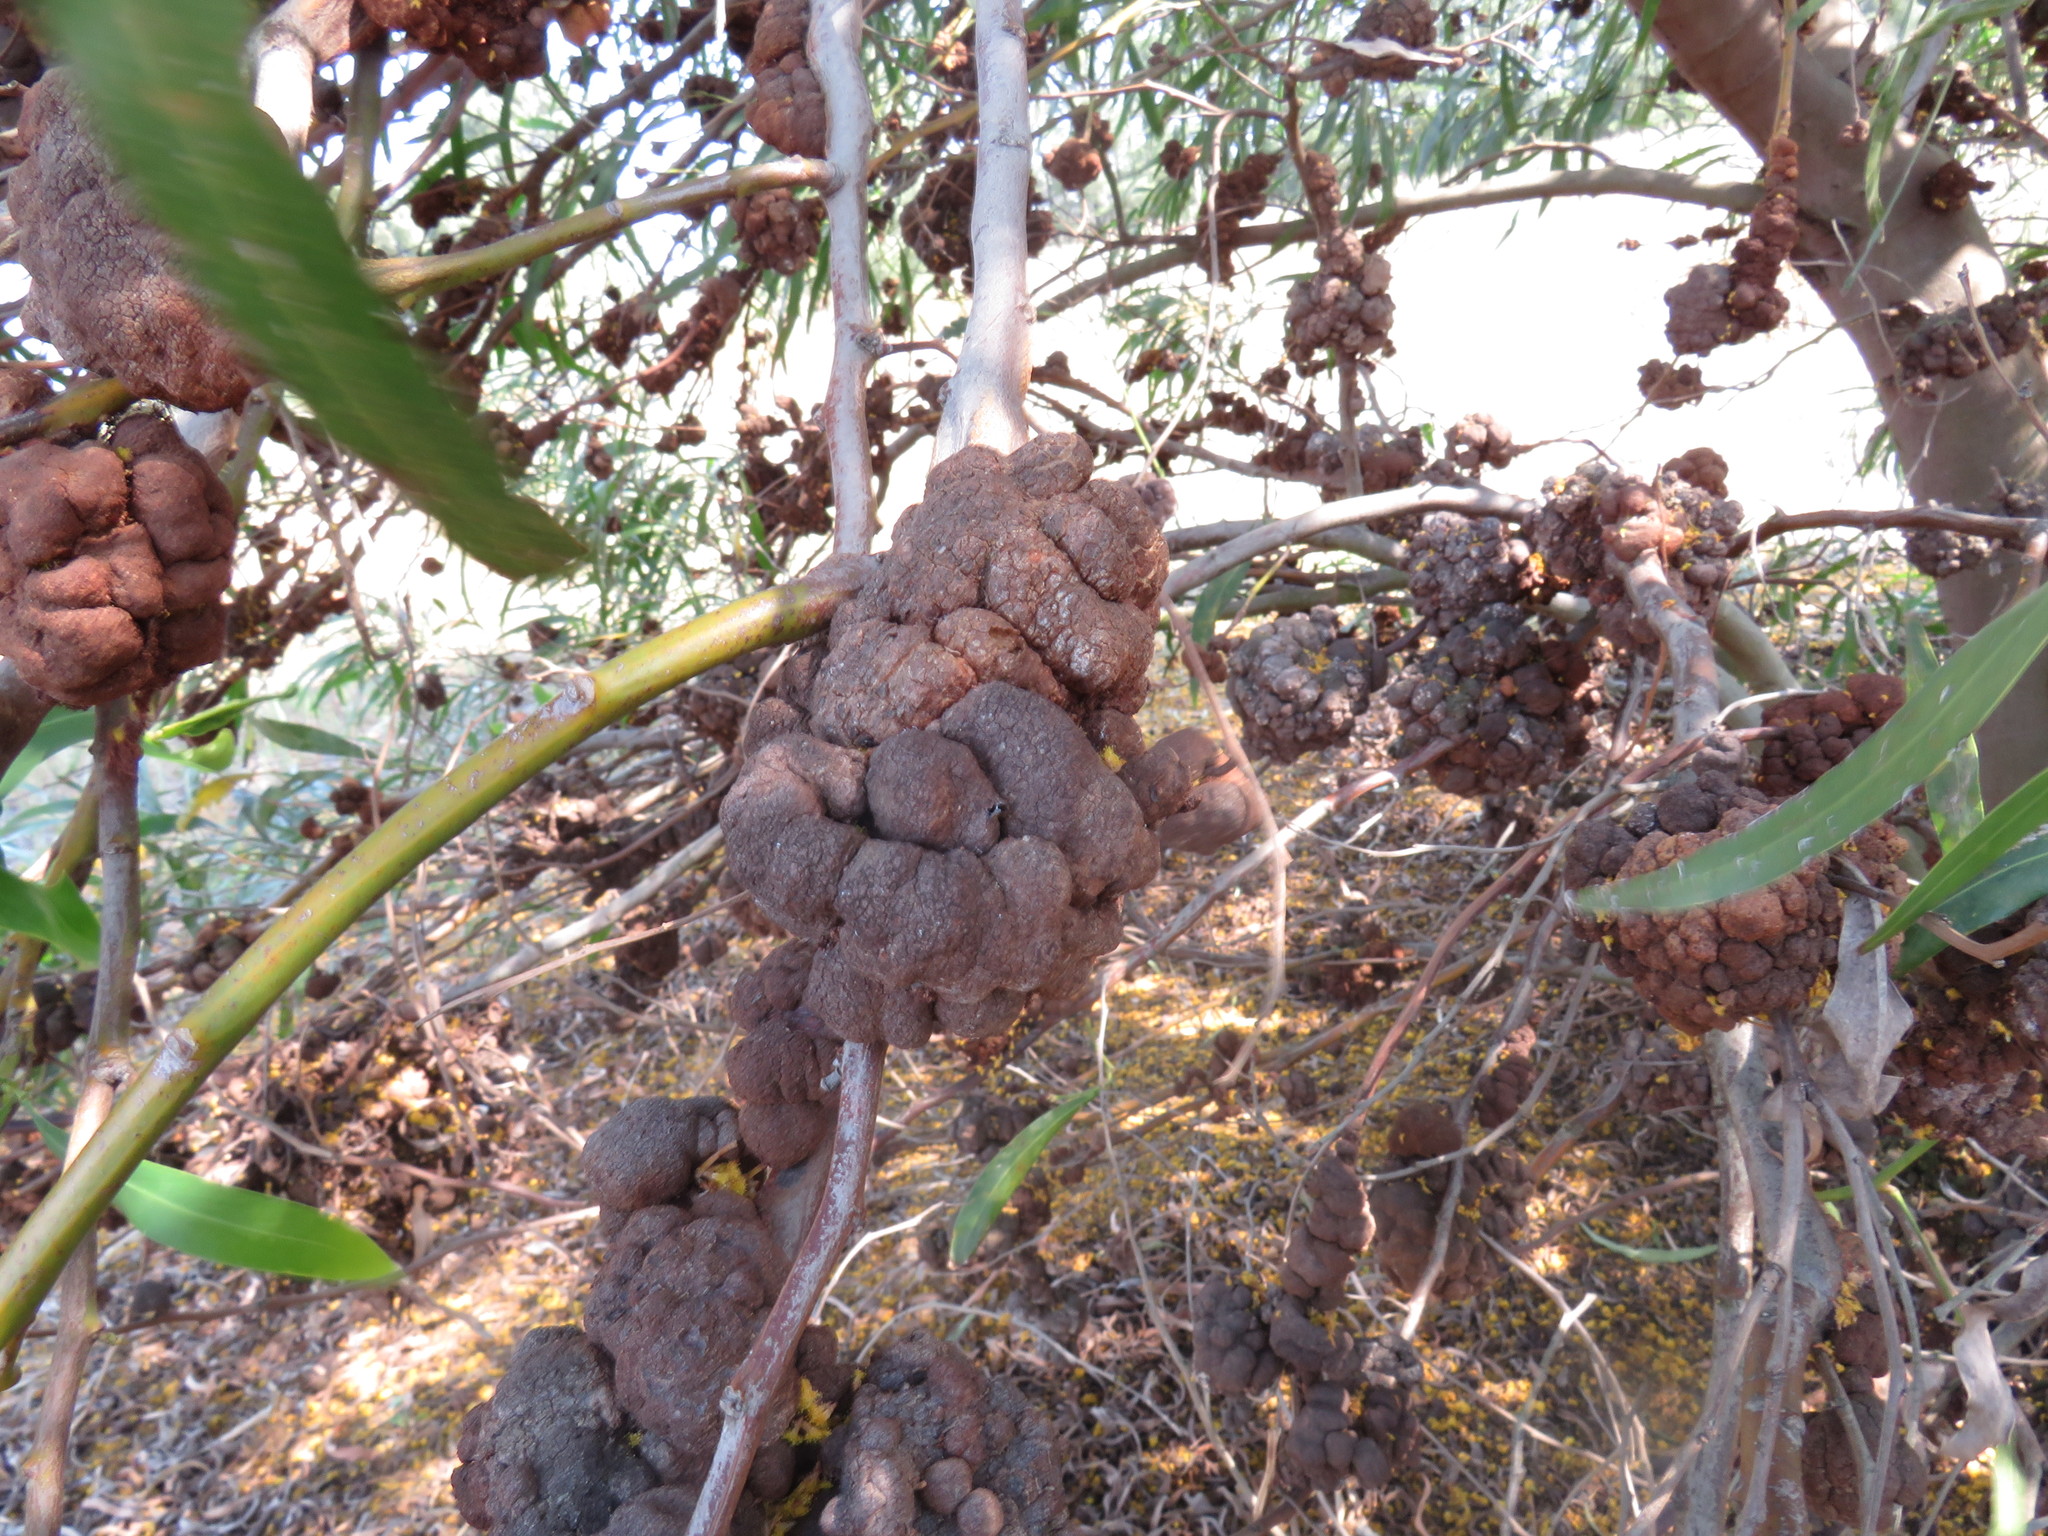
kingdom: Fungi
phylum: Basidiomycota
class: Pucciniomycetes
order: Pucciniales
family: Uromycladiaceae
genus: Uromycladium
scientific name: Uromycladium morrisii
